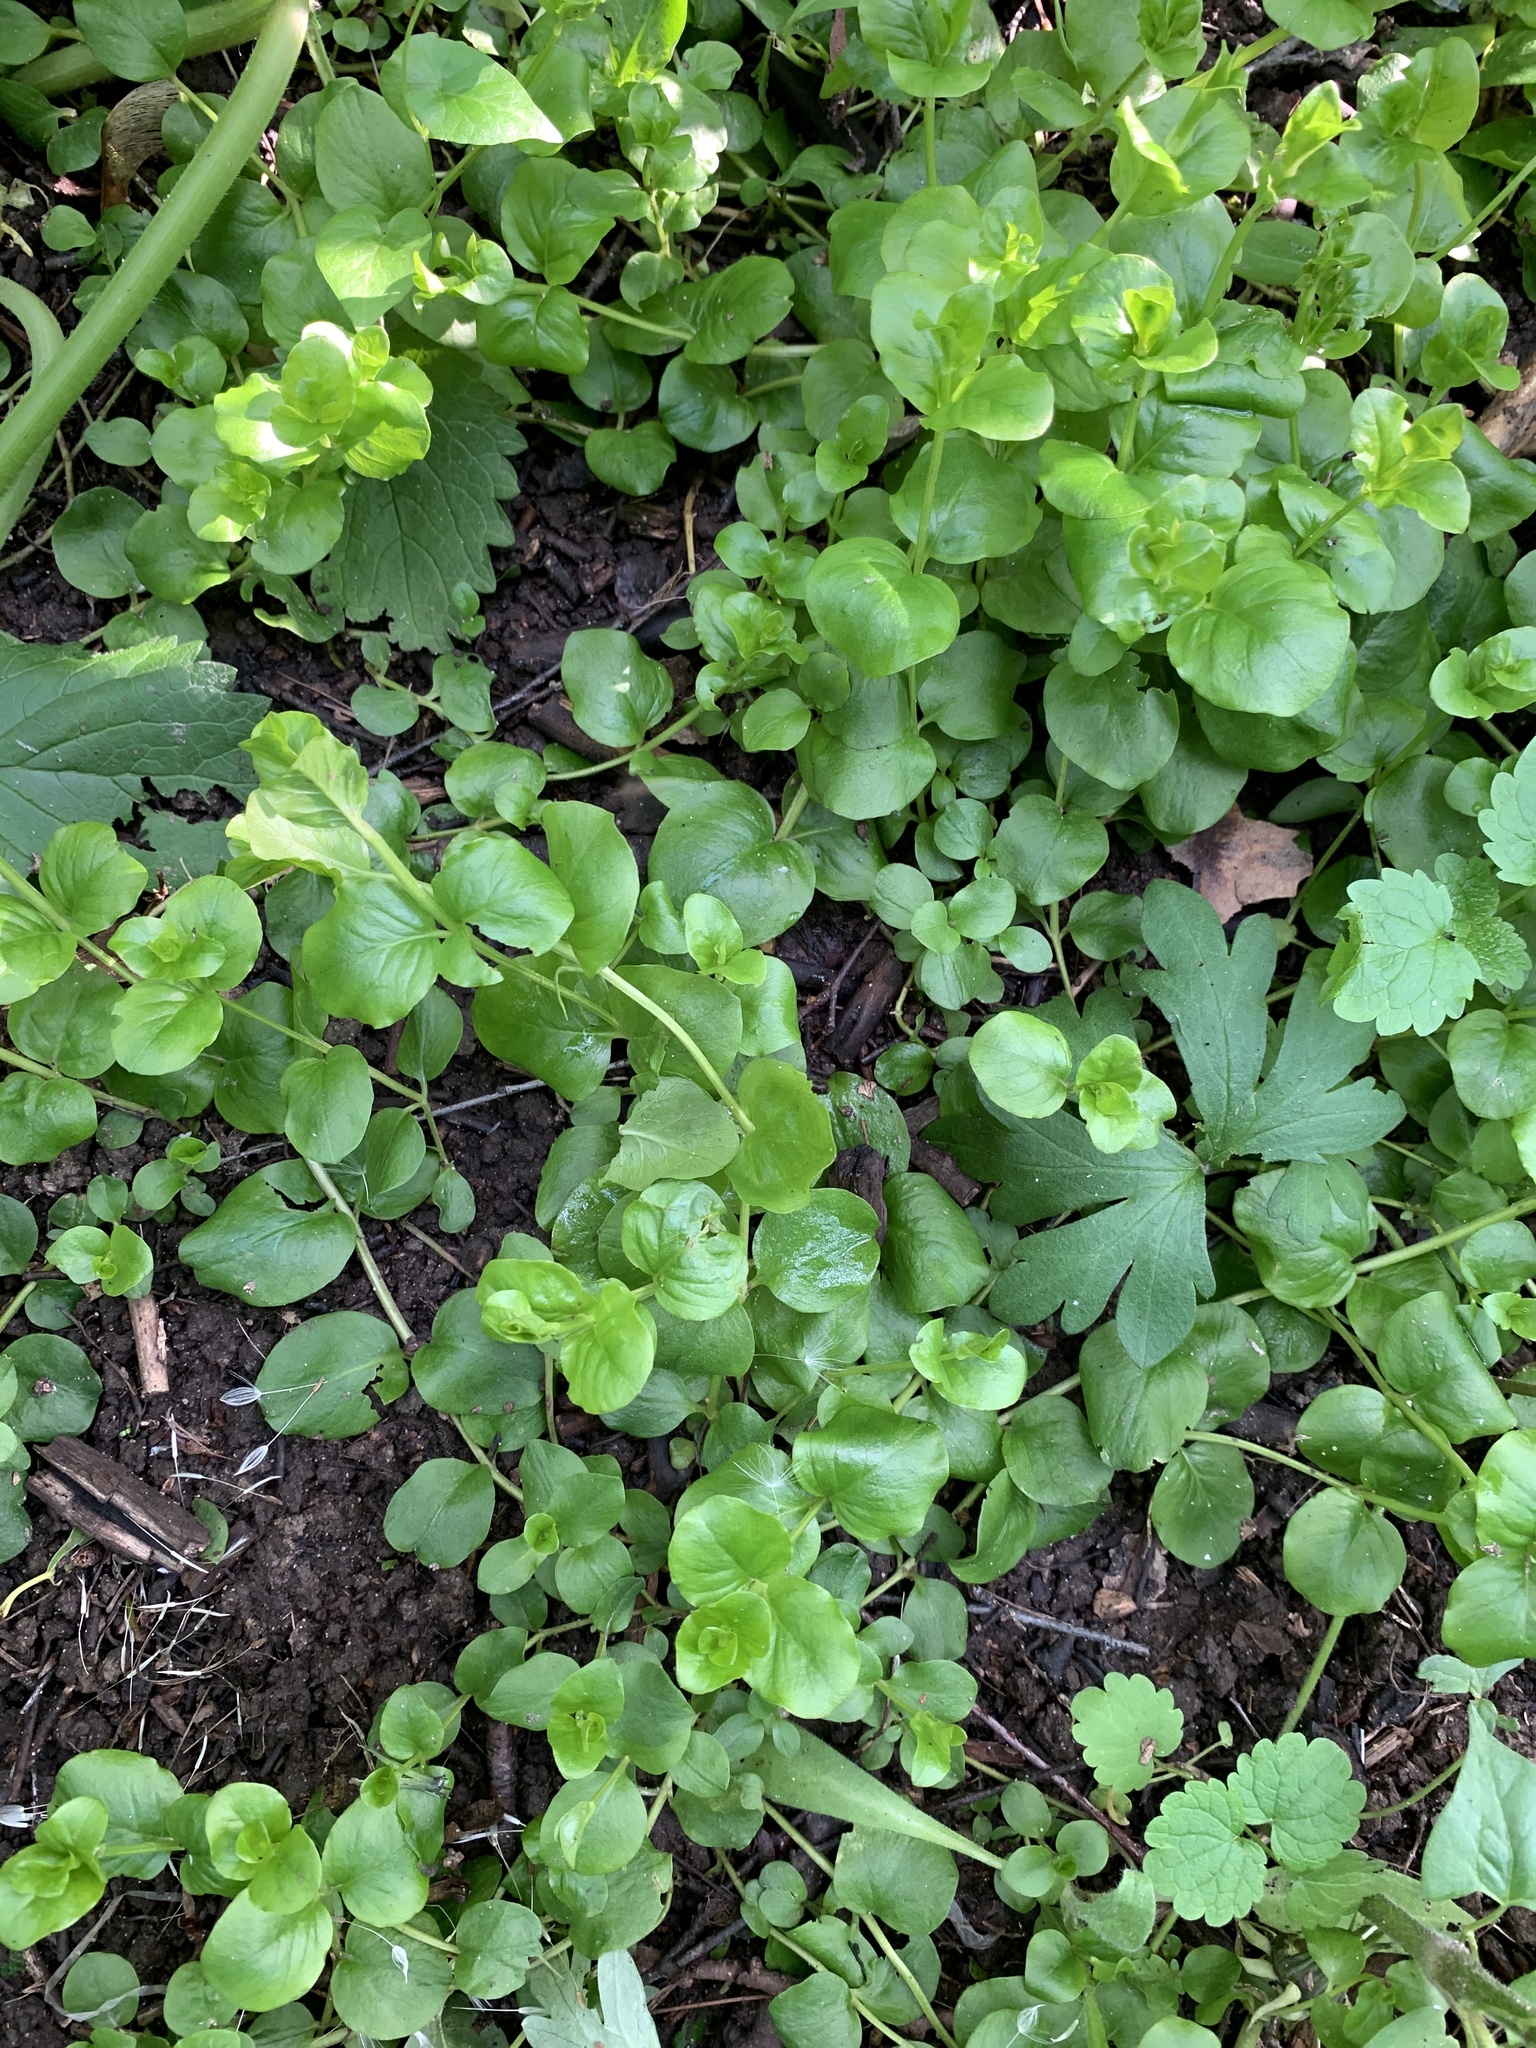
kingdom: Plantae
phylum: Tracheophyta
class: Magnoliopsida
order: Ericales
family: Primulaceae
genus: Lysimachia
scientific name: Lysimachia nummularia
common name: Moneywort
